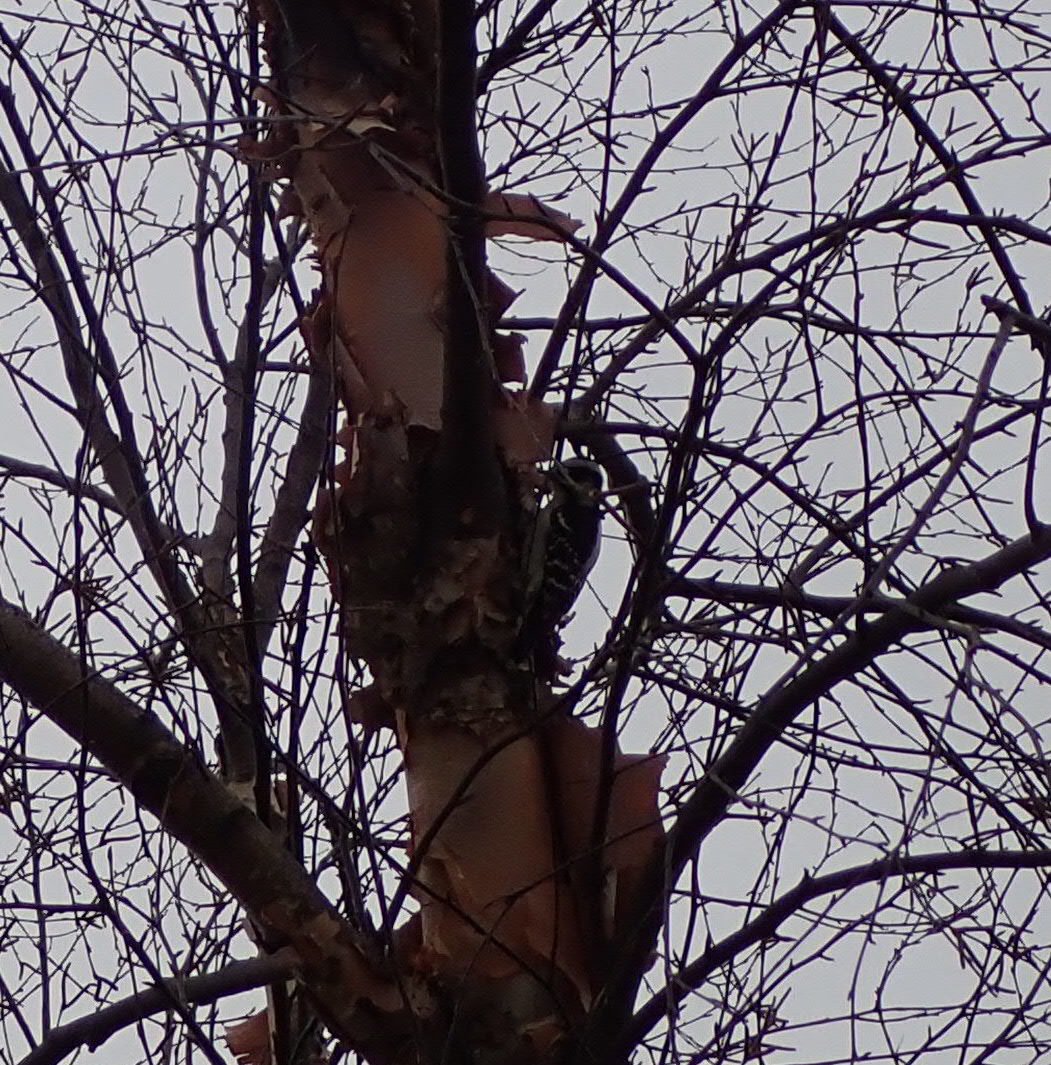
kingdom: Animalia
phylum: Chordata
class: Aves
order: Piciformes
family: Picidae
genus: Dryobates
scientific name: Dryobates pubescens
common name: Downy woodpecker
